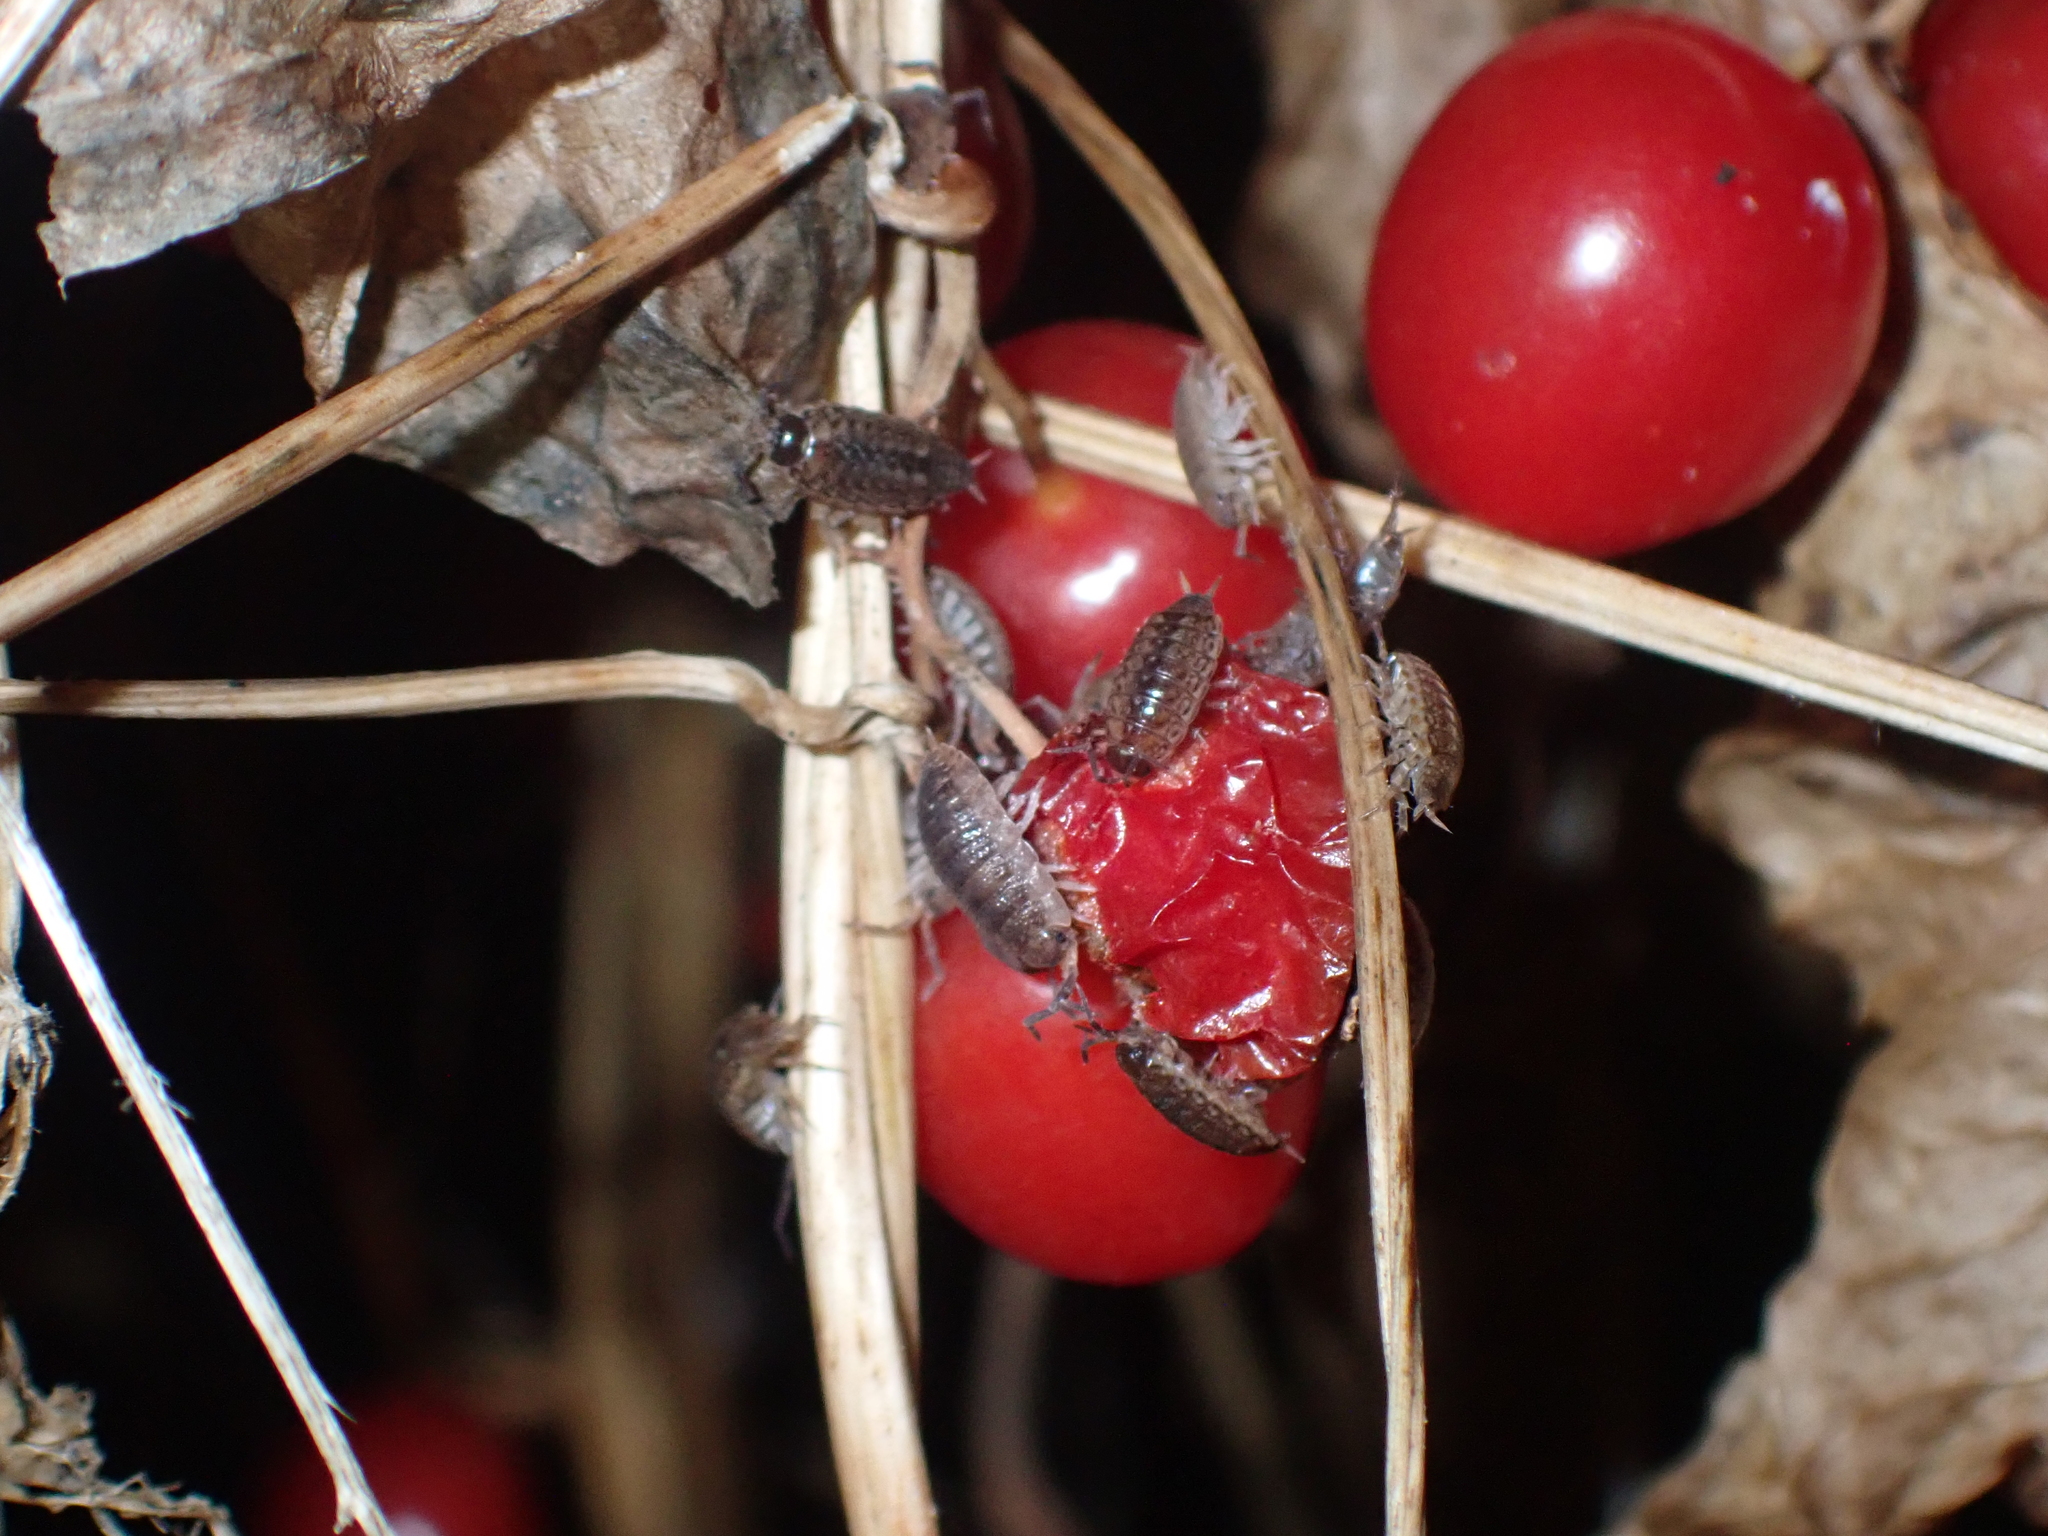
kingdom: Animalia
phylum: Arthropoda
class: Malacostraca
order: Isopoda
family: Philosciidae
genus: Philoscia
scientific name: Philoscia muscorum
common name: Common striped woodlouse
